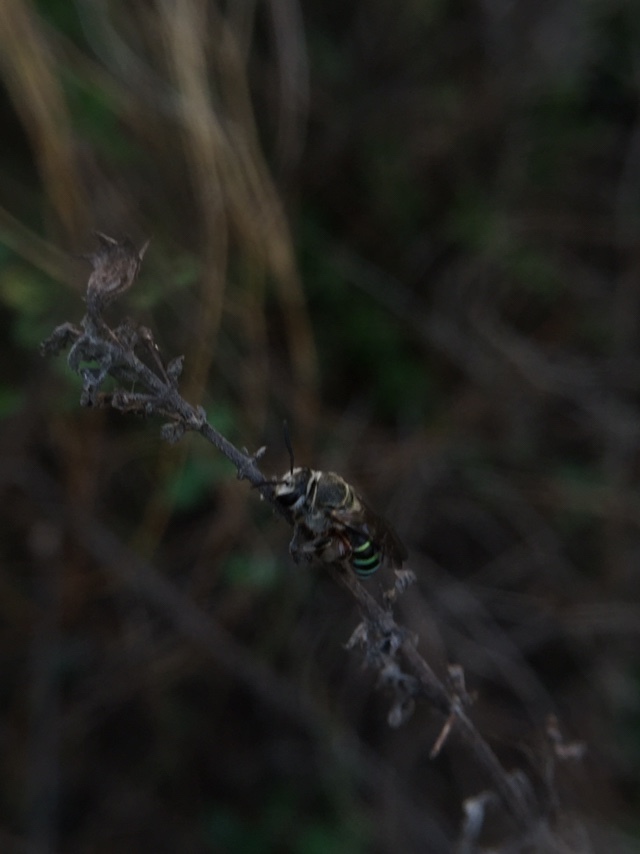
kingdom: Animalia
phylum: Arthropoda
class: Insecta
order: Hymenoptera
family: Halictidae
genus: Nomia
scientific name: Nomia westwoodi
